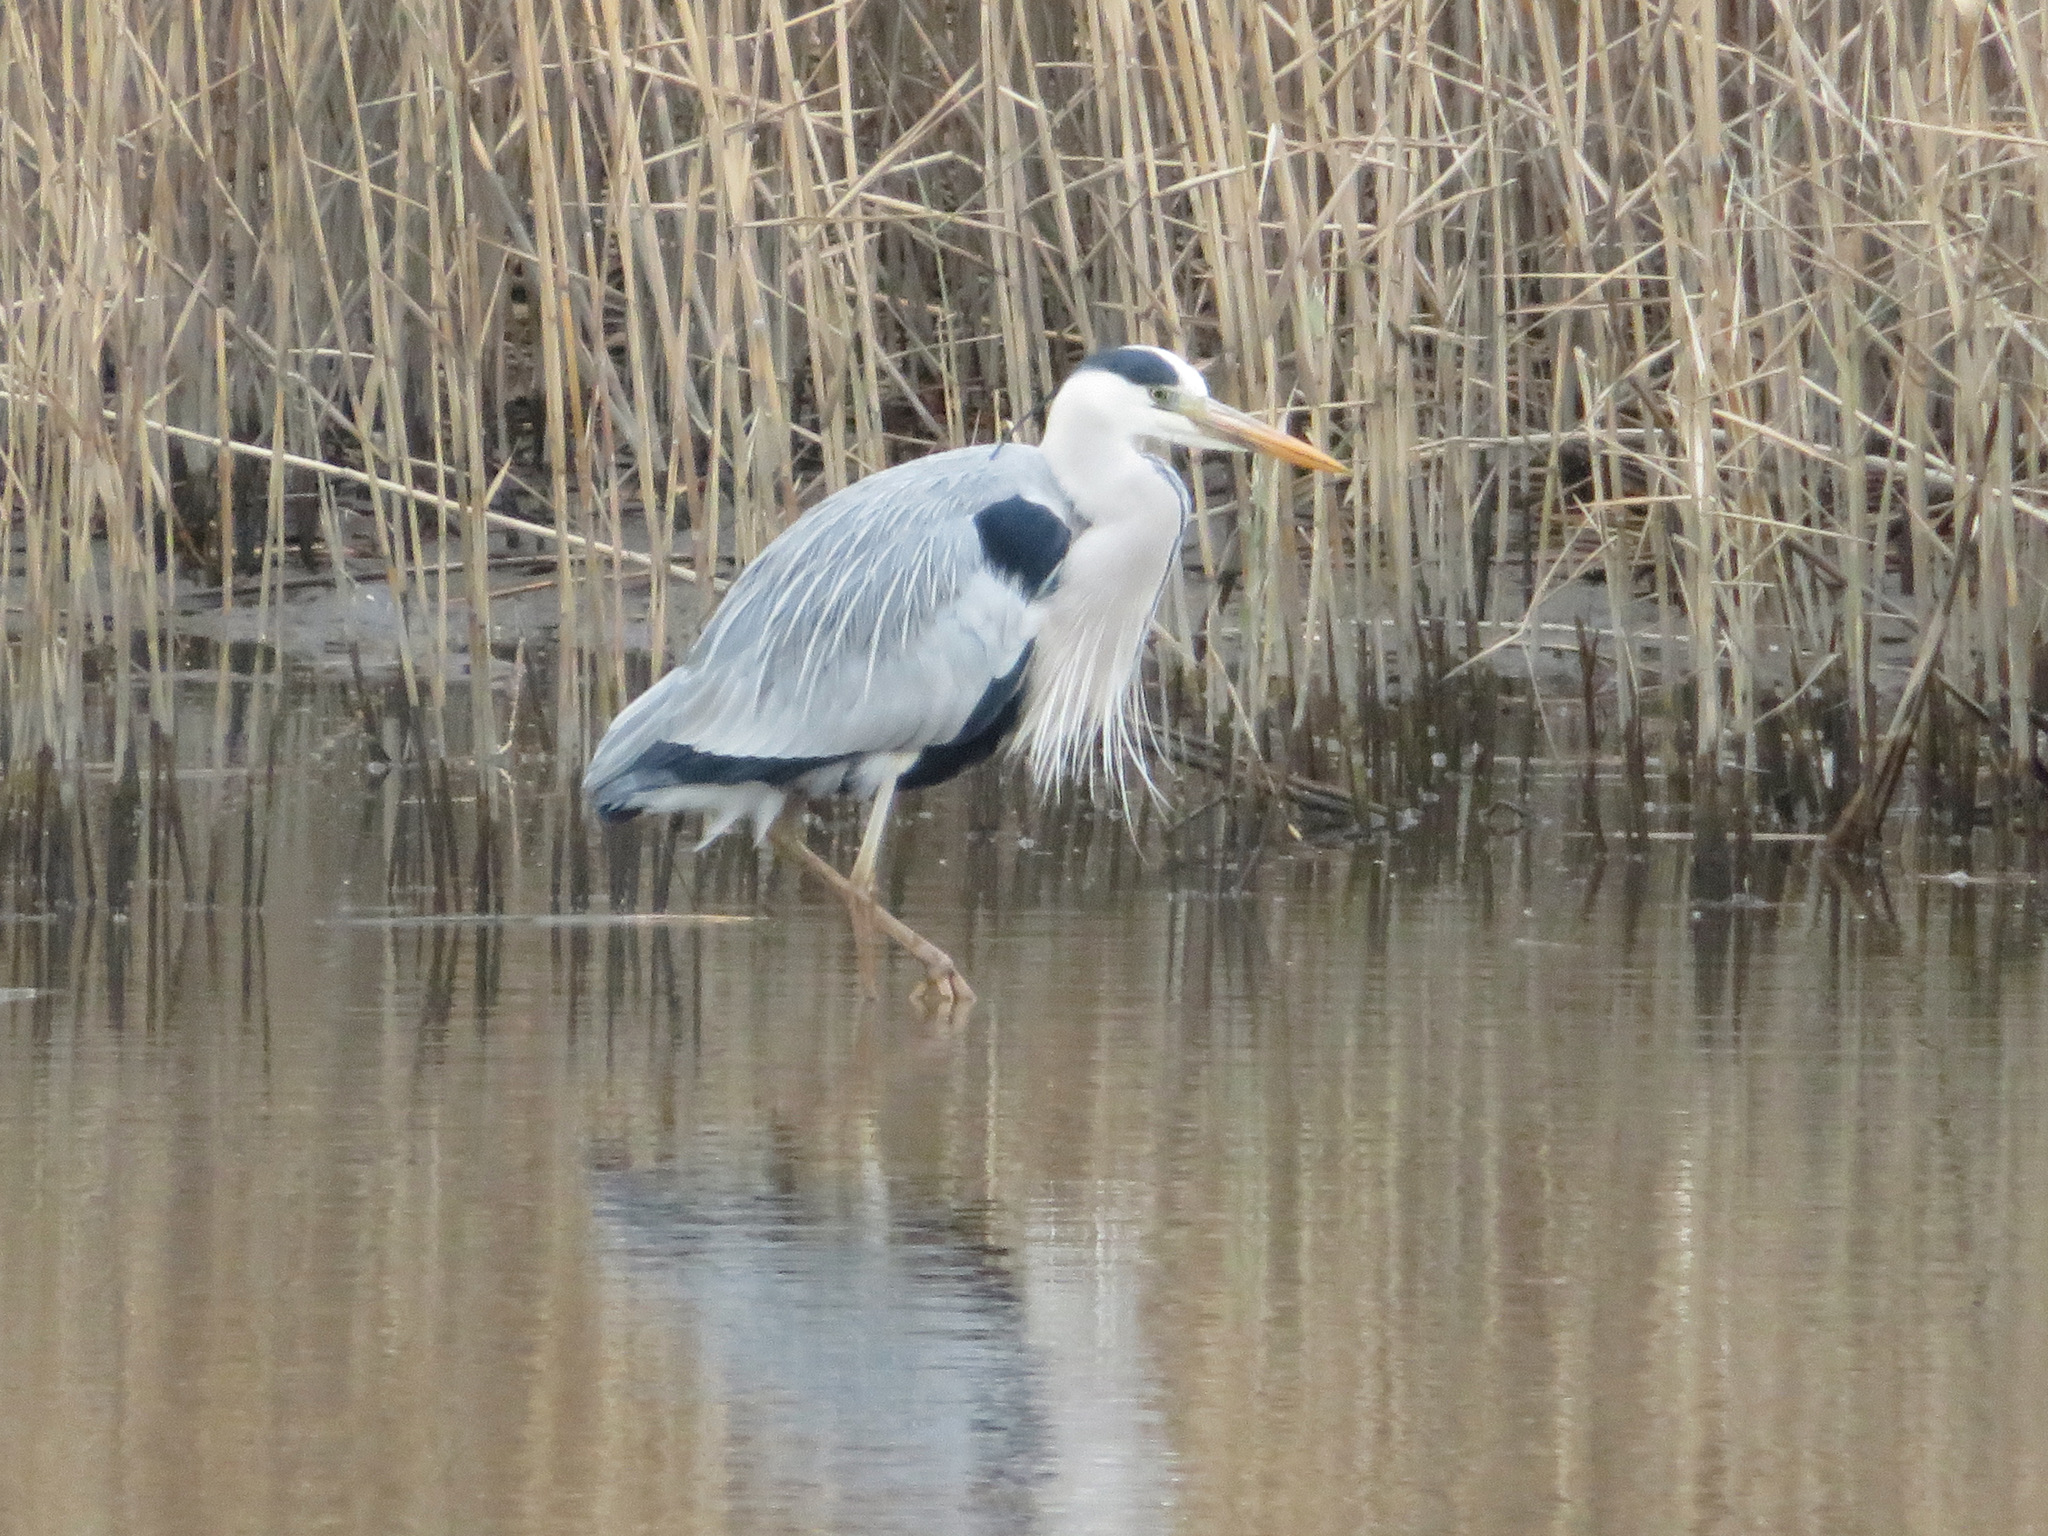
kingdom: Animalia
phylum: Chordata
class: Aves
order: Pelecaniformes
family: Ardeidae
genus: Ardea
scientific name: Ardea cinerea
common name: Grey heron
